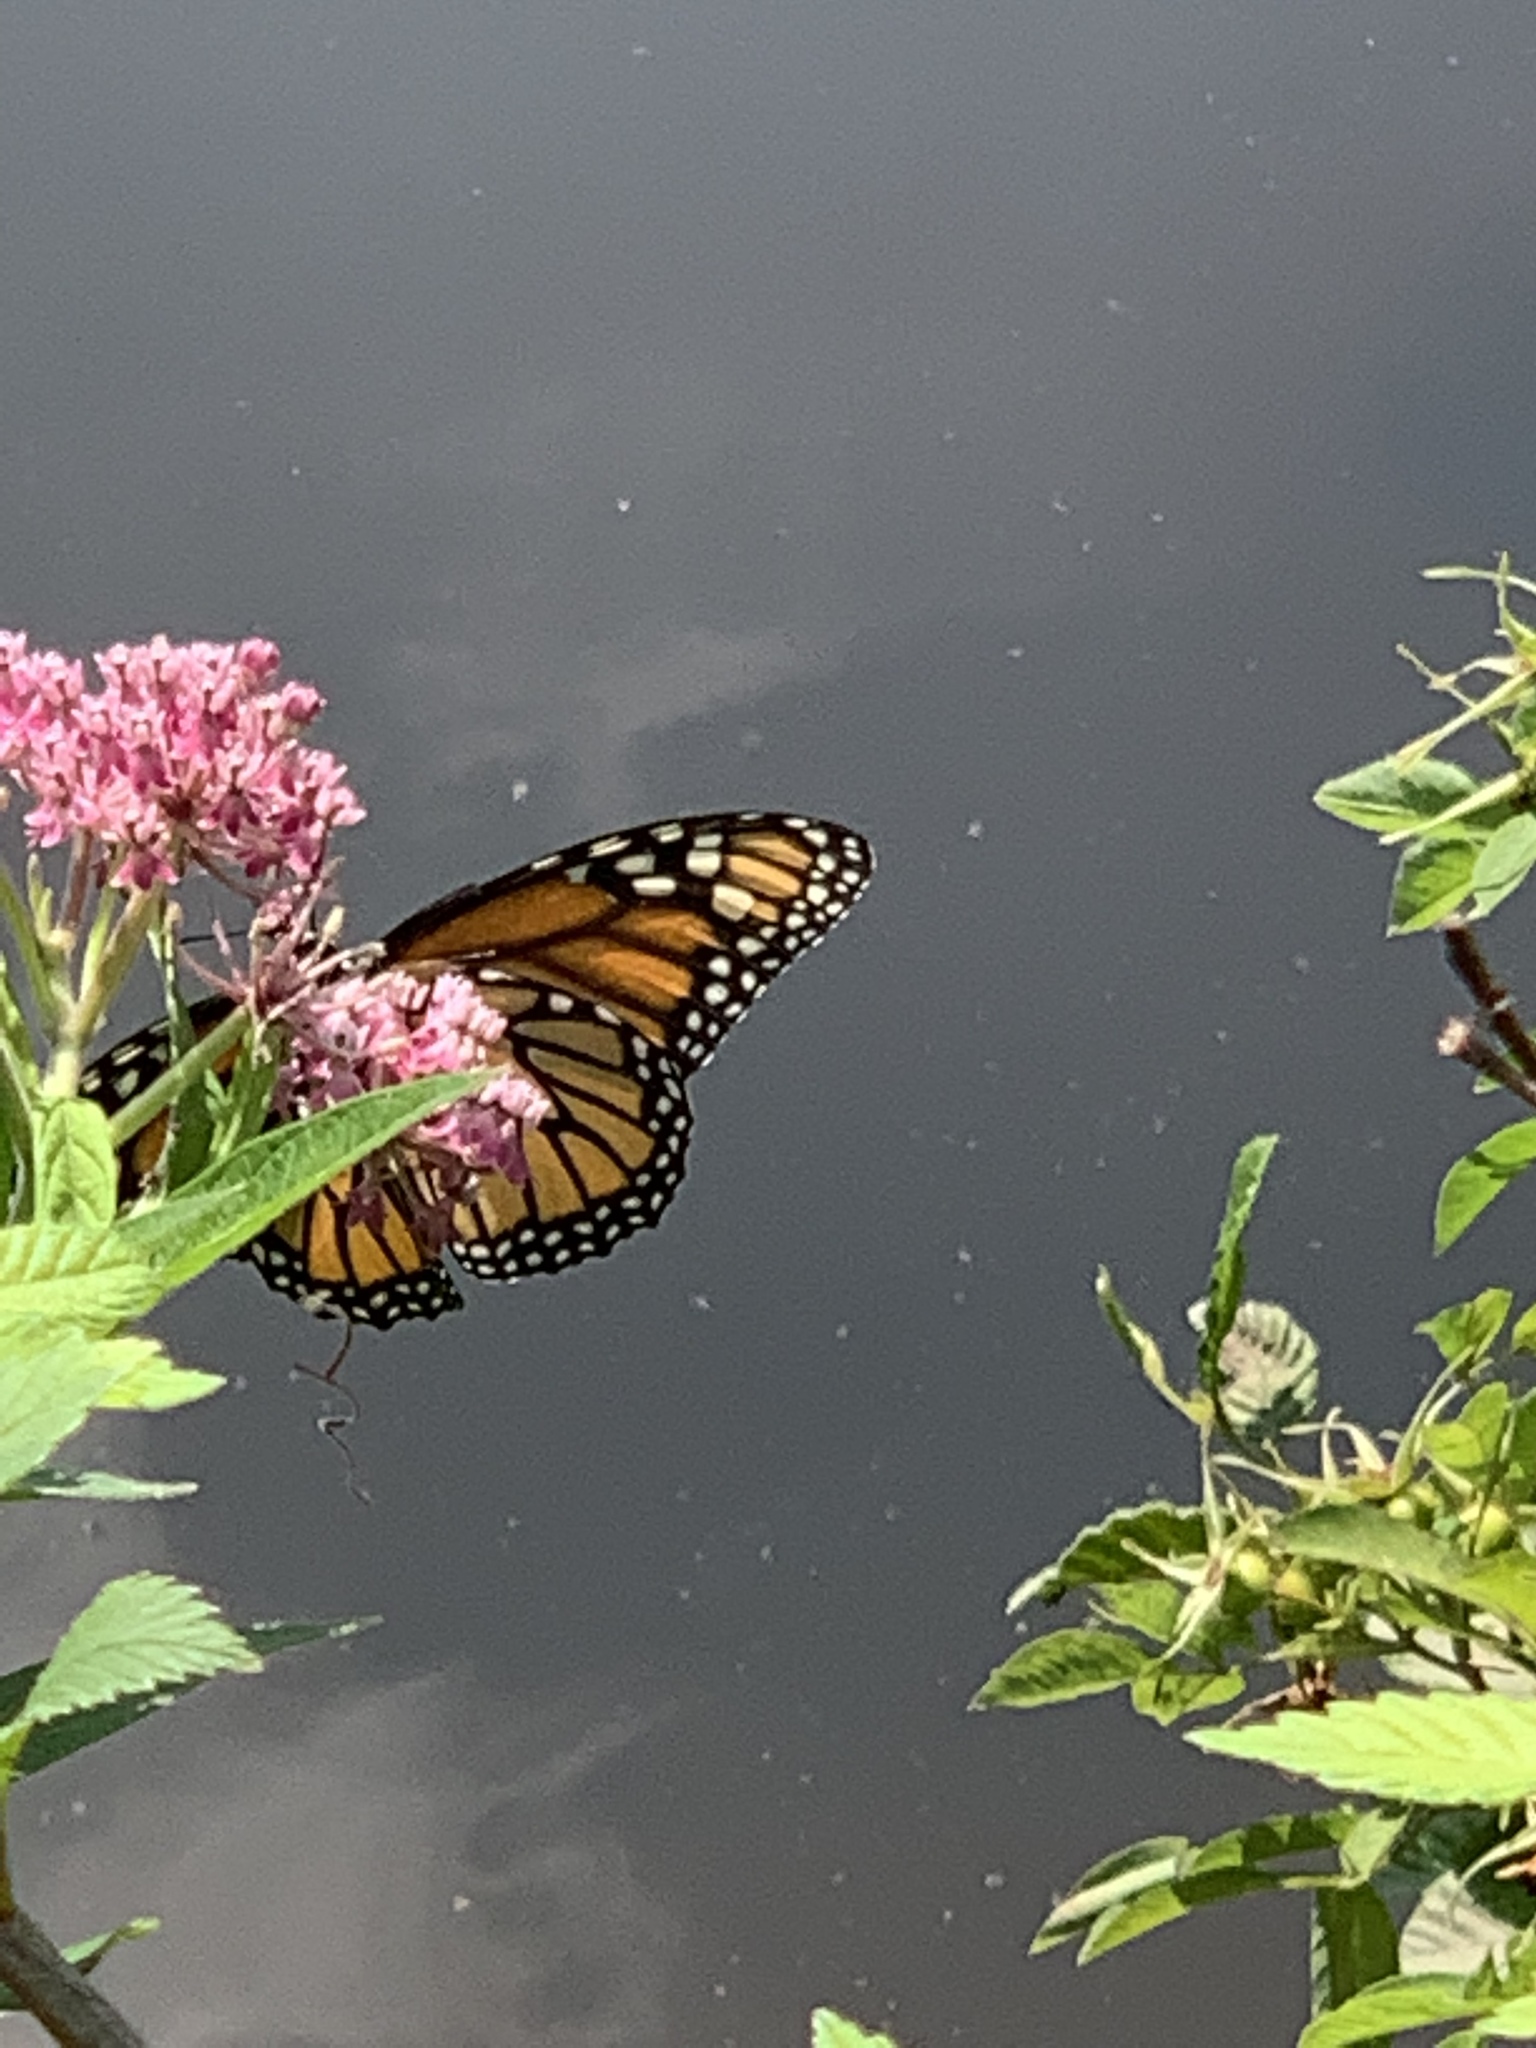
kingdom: Animalia
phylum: Arthropoda
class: Insecta
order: Lepidoptera
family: Nymphalidae
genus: Danaus
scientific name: Danaus plexippus
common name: Monarch
